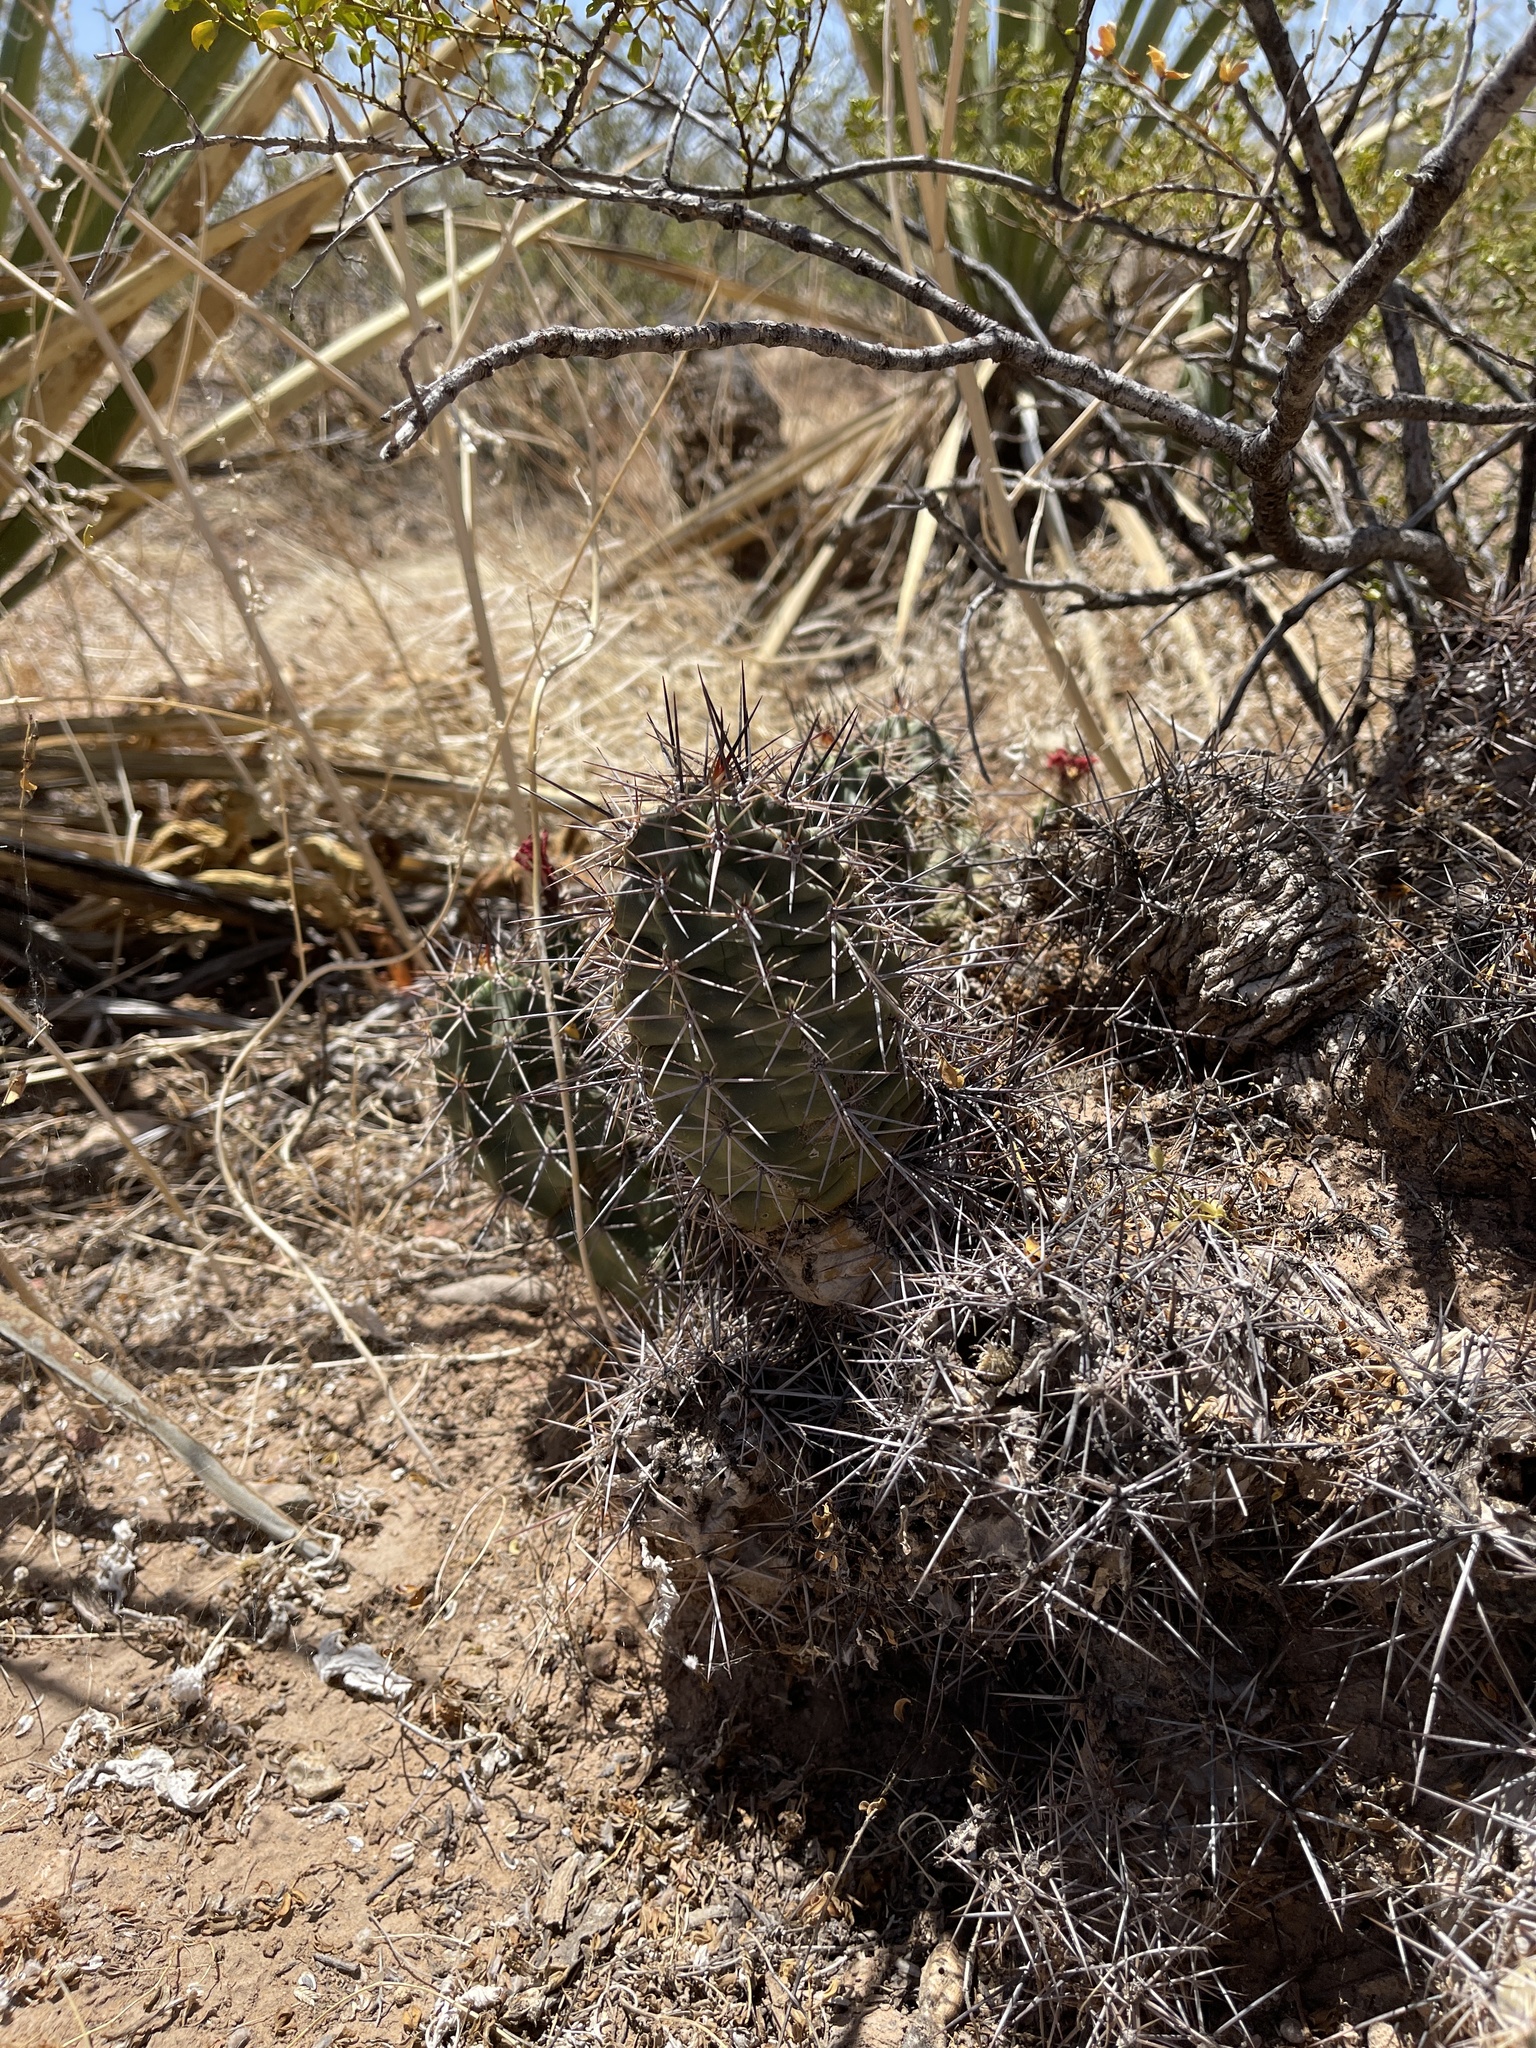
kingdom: Plantae
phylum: Tracheophyta
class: Magnoliopsida
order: Caryophyllales
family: Cactaceae
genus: Echinocereus
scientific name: Echinocereus coccineus
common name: Scarlet hedgehog cactus
